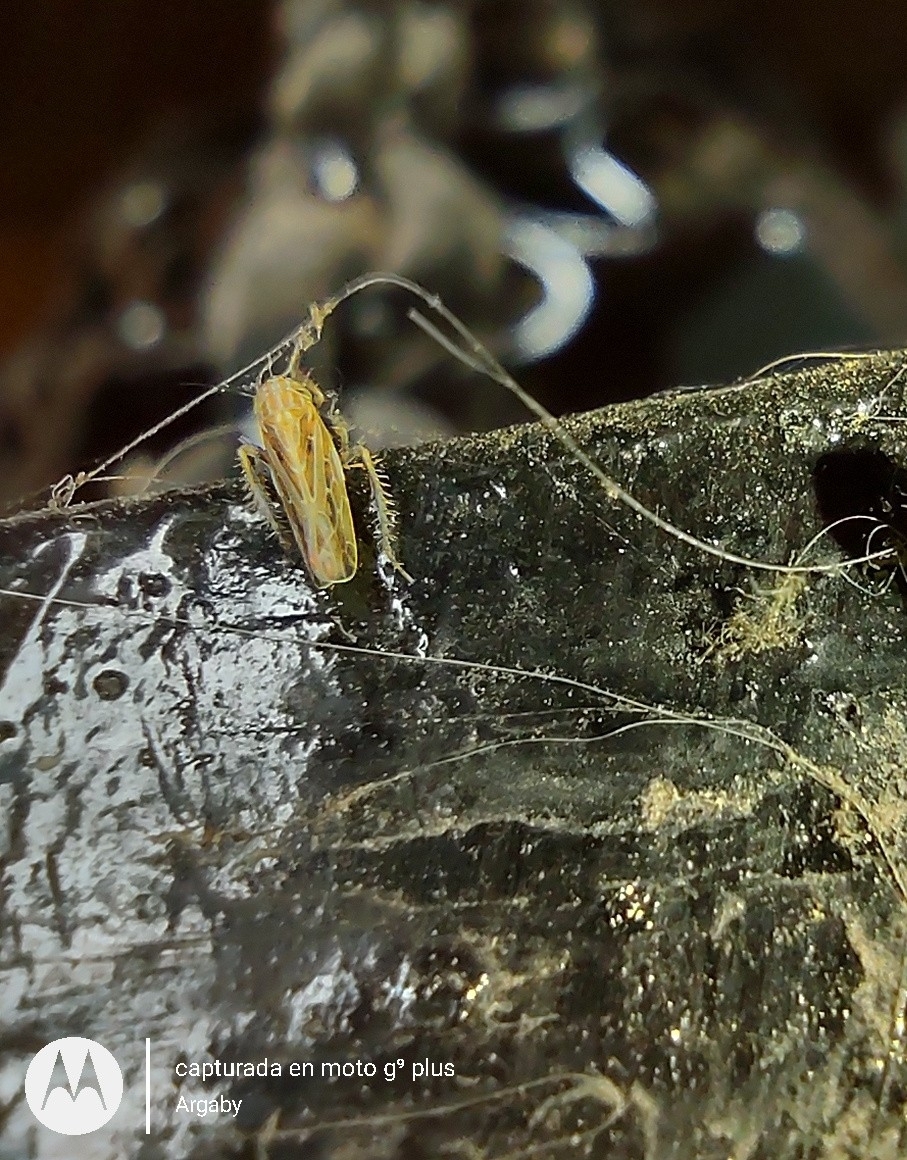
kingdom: Animalia
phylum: Arthropoda
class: Insecta
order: Hemiptera
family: Cicadellidae
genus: Mendozellus
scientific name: Mendozellus asunctia
